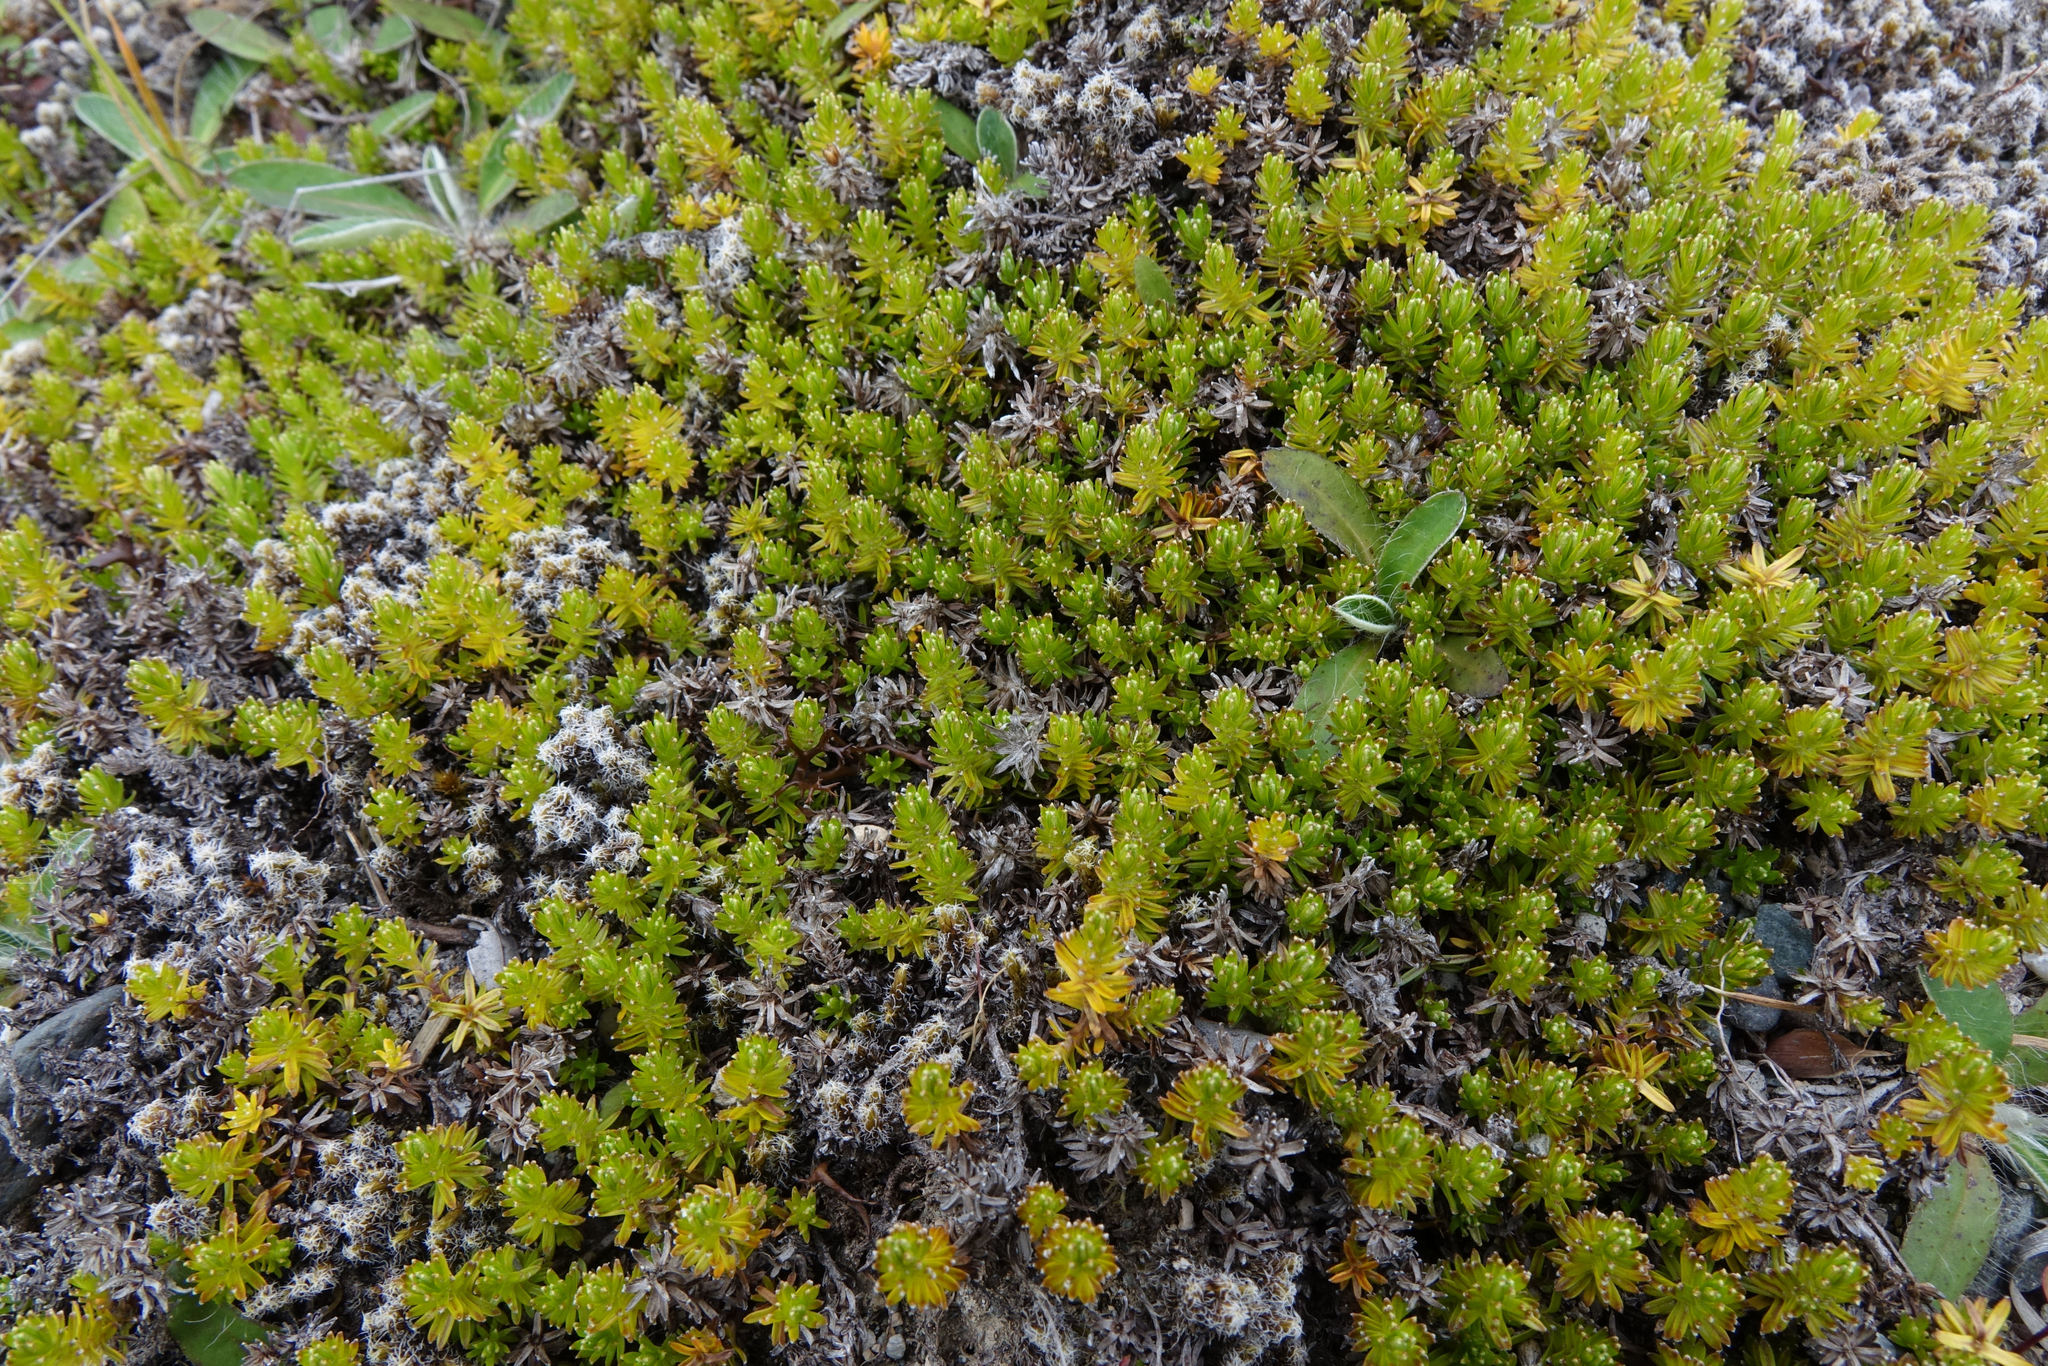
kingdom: Plantae
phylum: Tracheophyta
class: Magnoliopsida
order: Asterales
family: Asteraceae
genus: Raoulia
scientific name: Raoulia glabra
